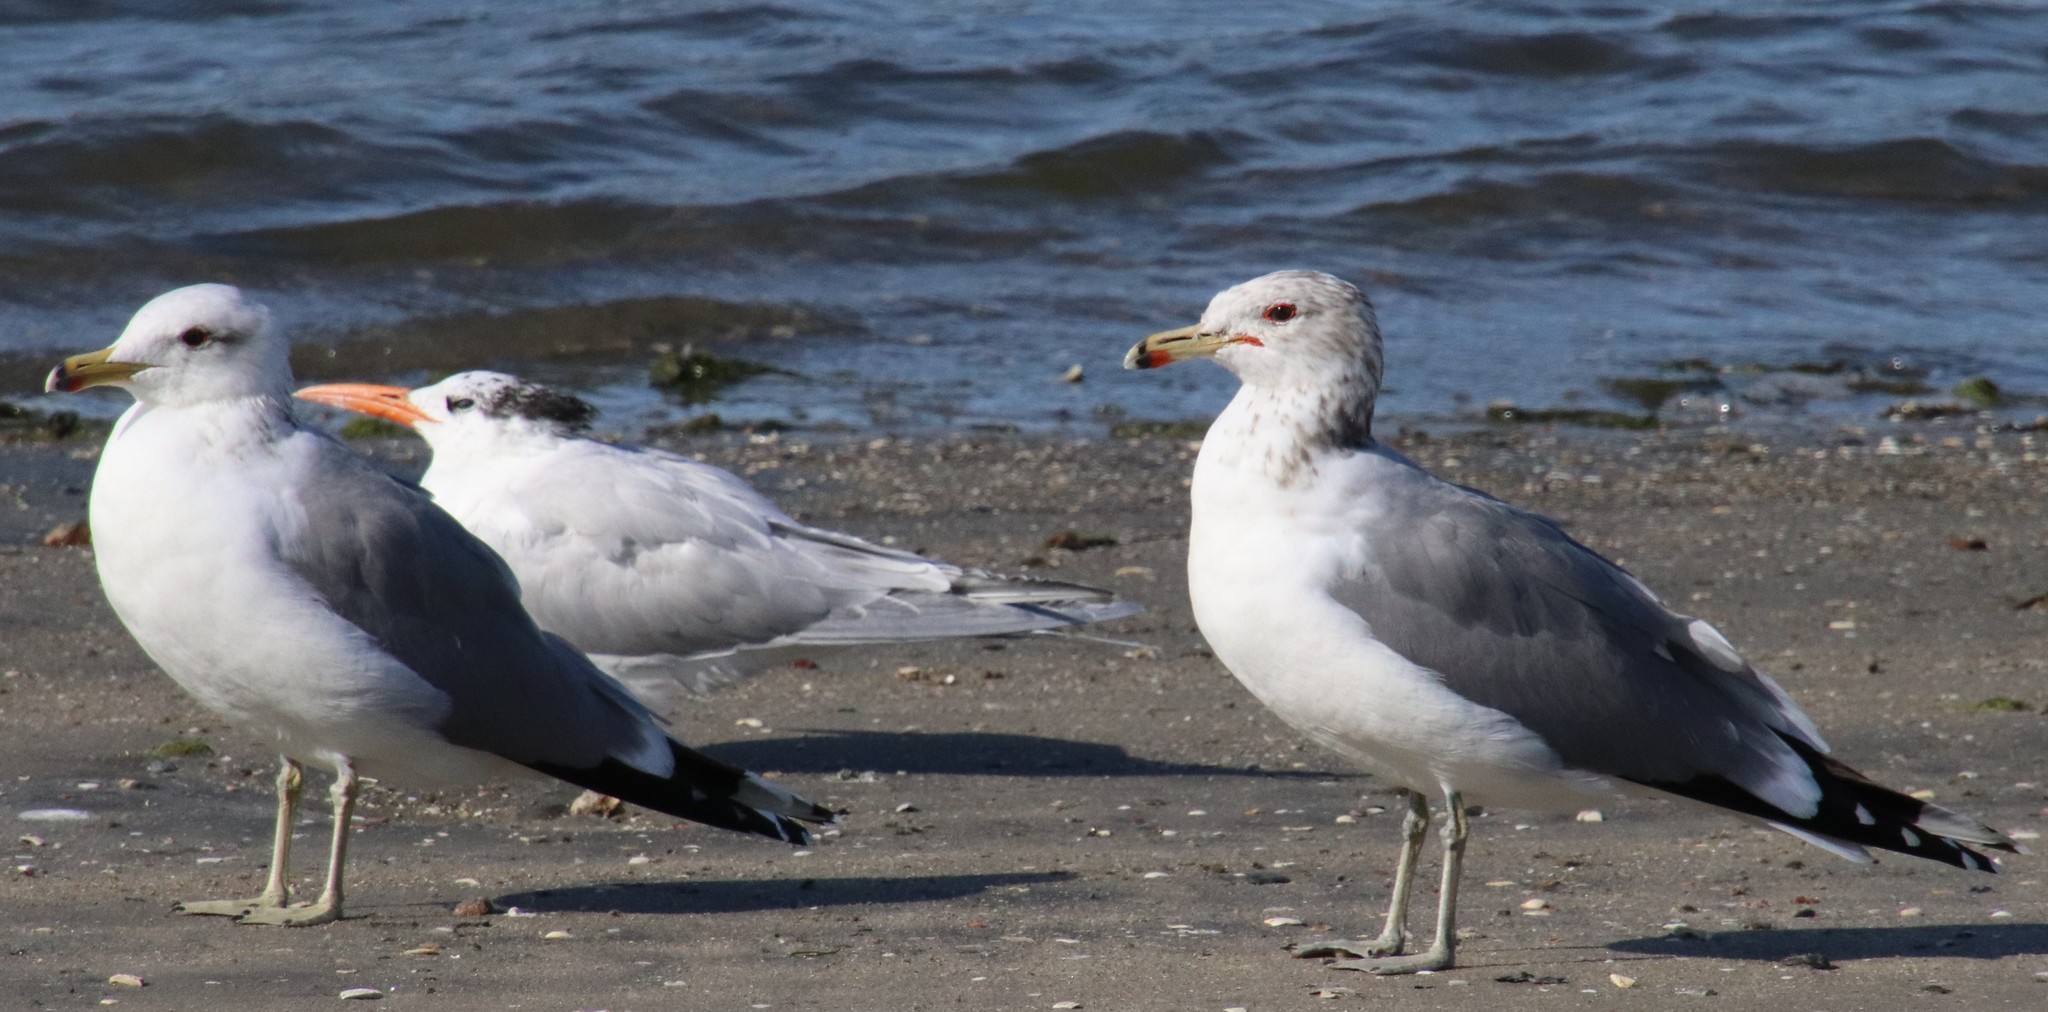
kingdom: Animalia
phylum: Chordata
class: Aves
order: Charadriiformes
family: Laridae
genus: Larus
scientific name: Larus californicus
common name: California gull
